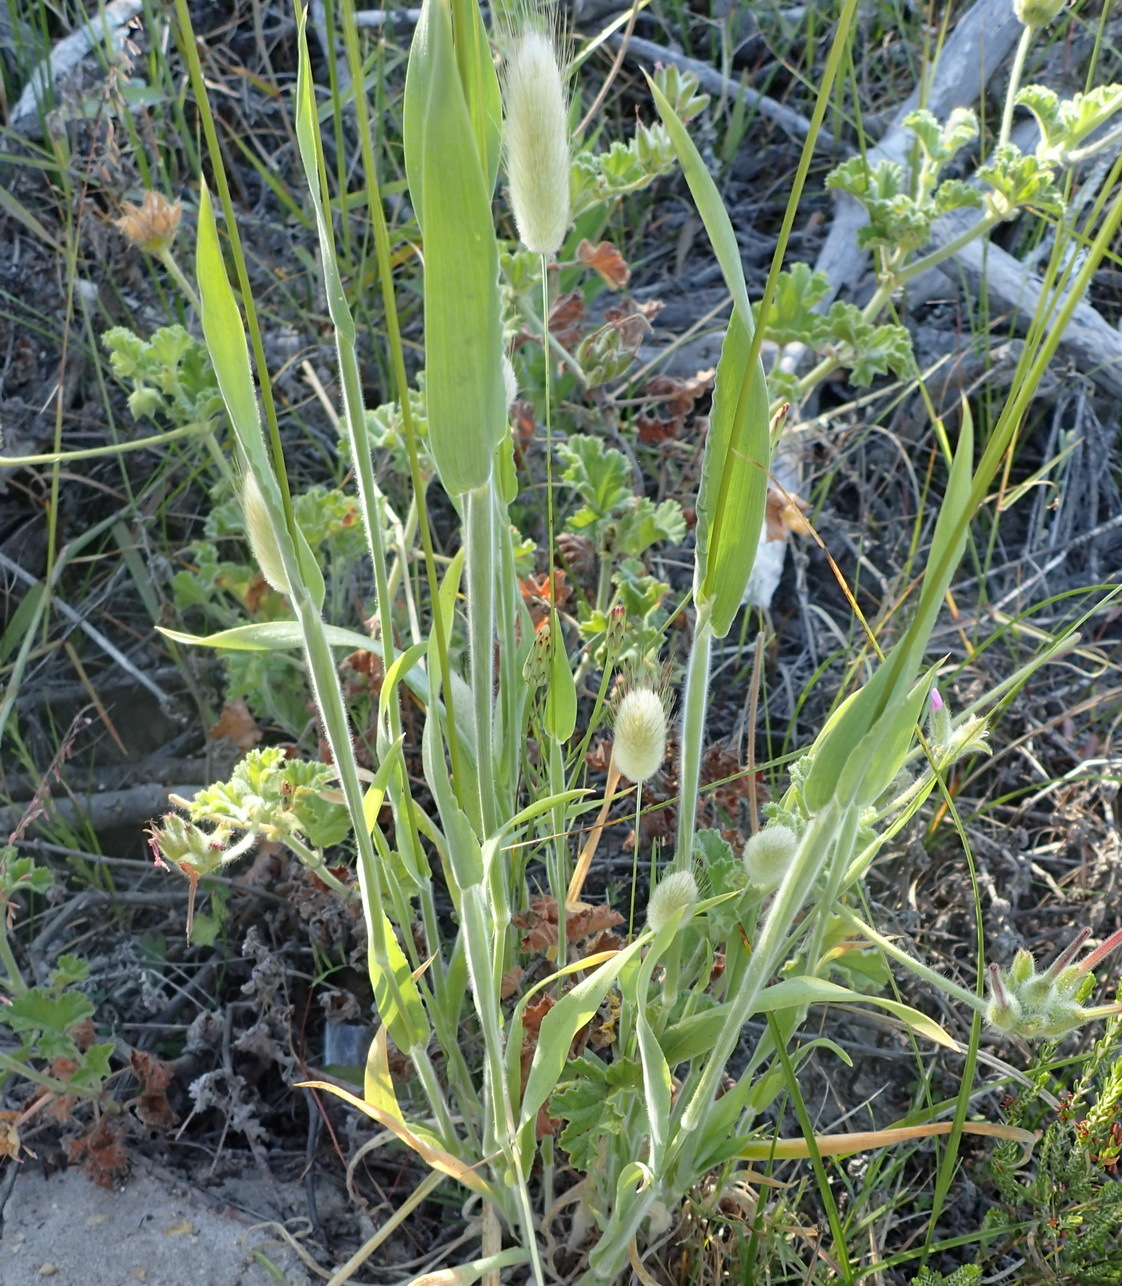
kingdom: Plantae
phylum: Tracheophyta
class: Liliopsida
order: Poales
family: Poaceae
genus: Lagurus
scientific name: Lagurus ovatus
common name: Hare's-tail
